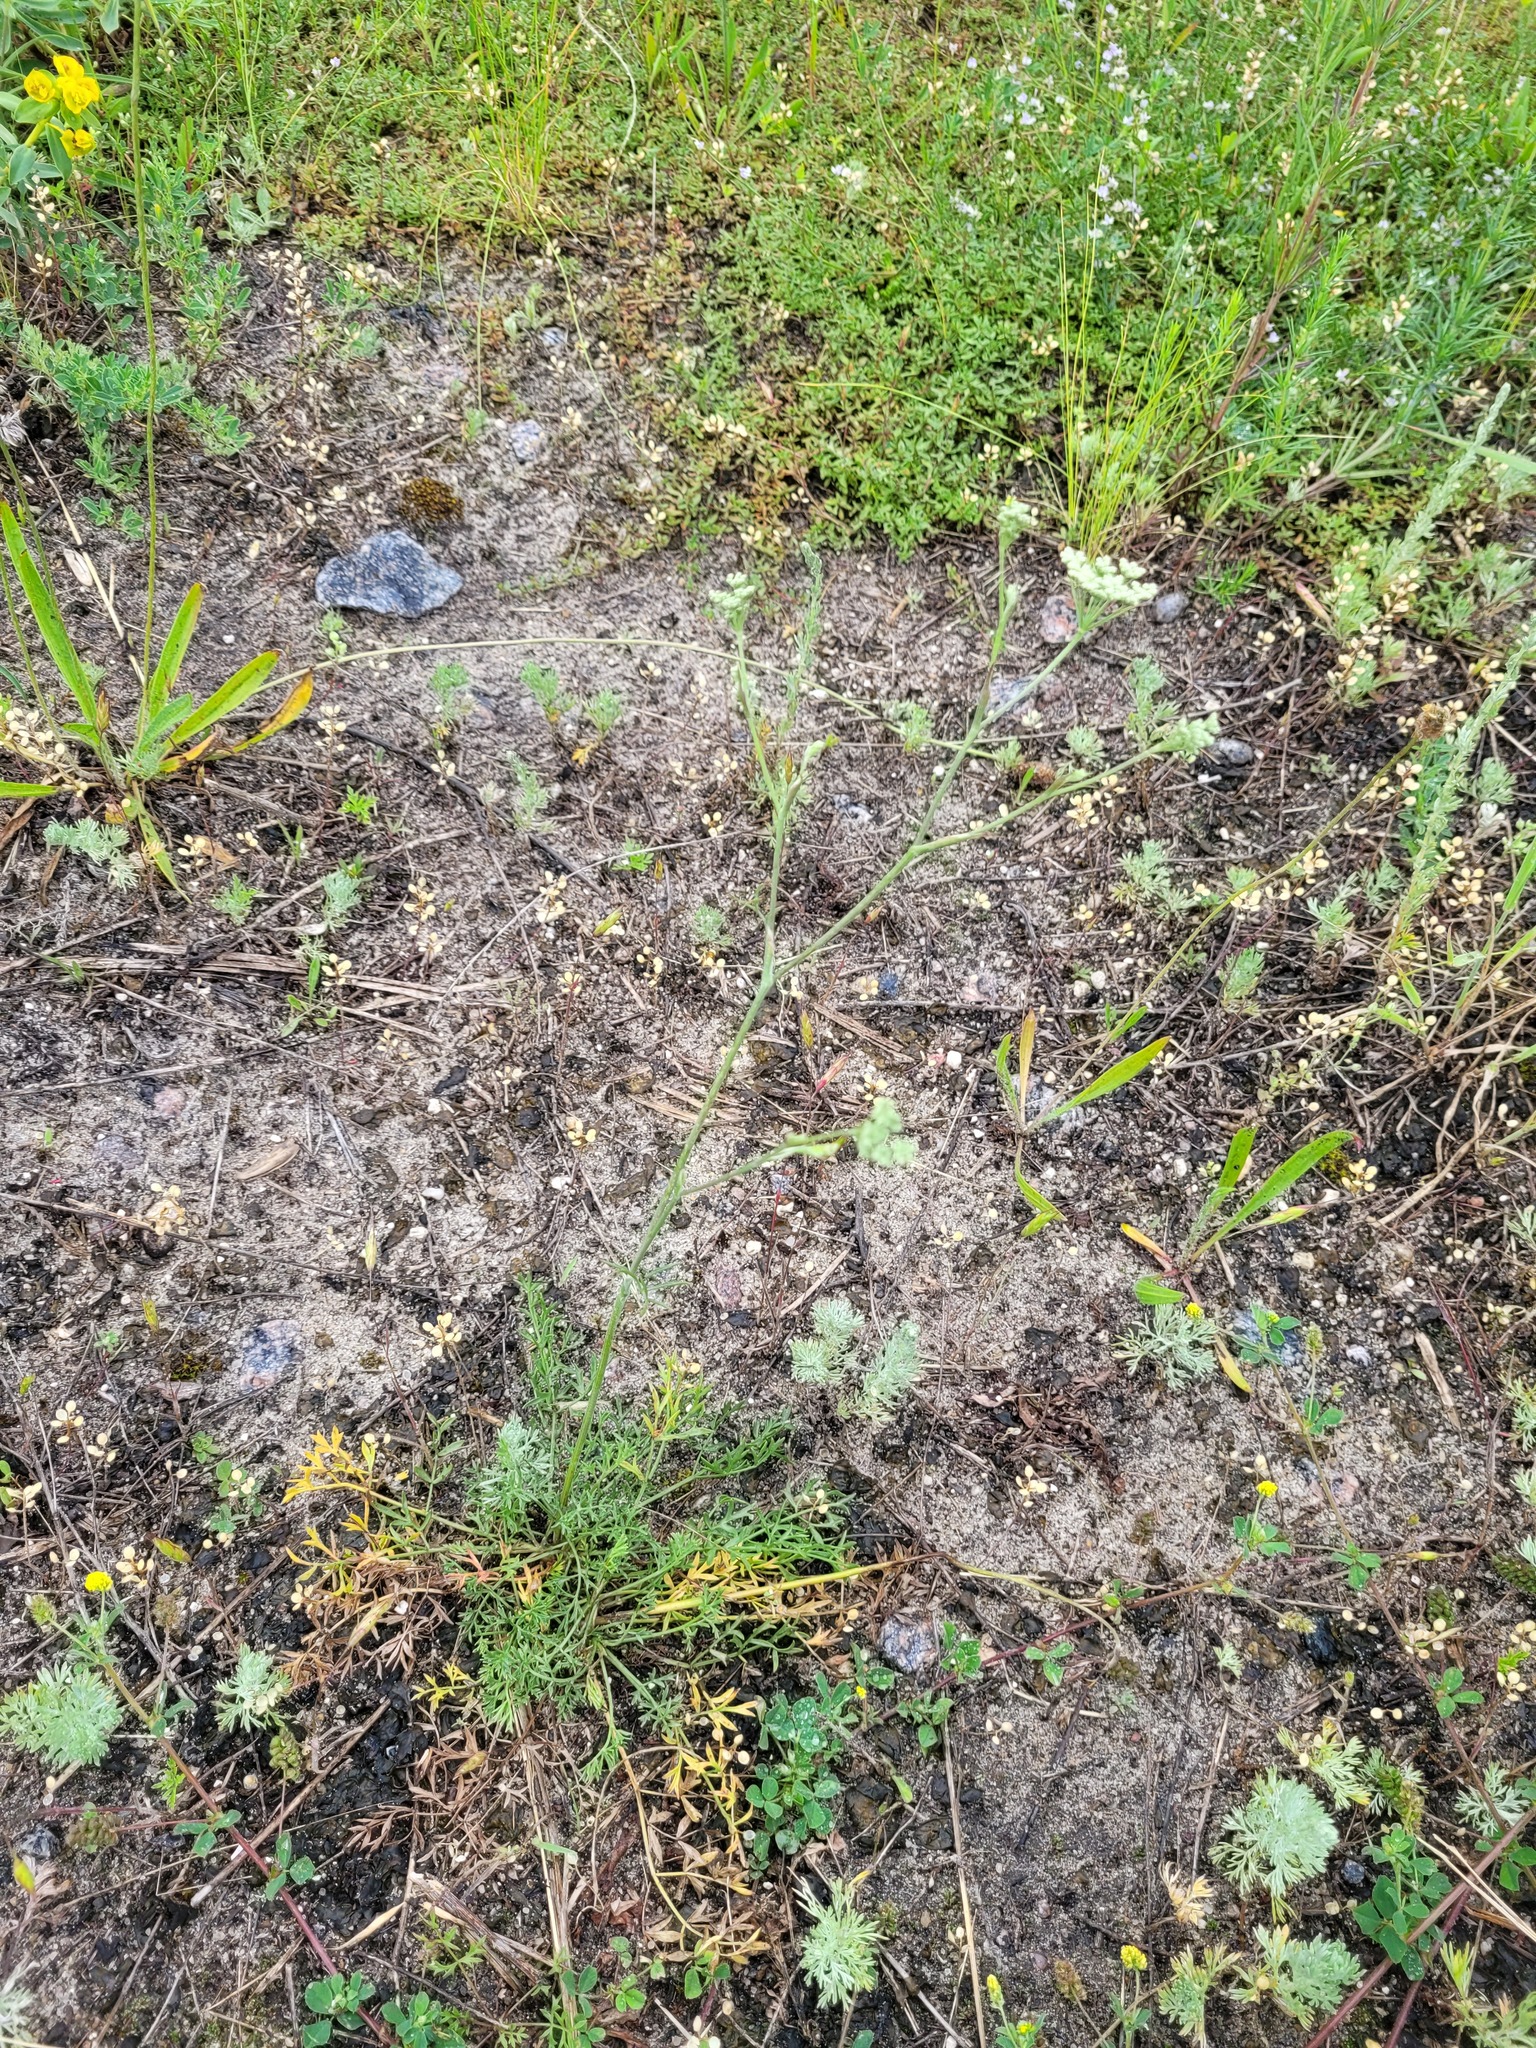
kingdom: Plantae
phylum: Tracheophyta
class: Magnoliopsida
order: Apiales
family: Apiaceae
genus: Pimpinella
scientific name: Pimpinella tragium
